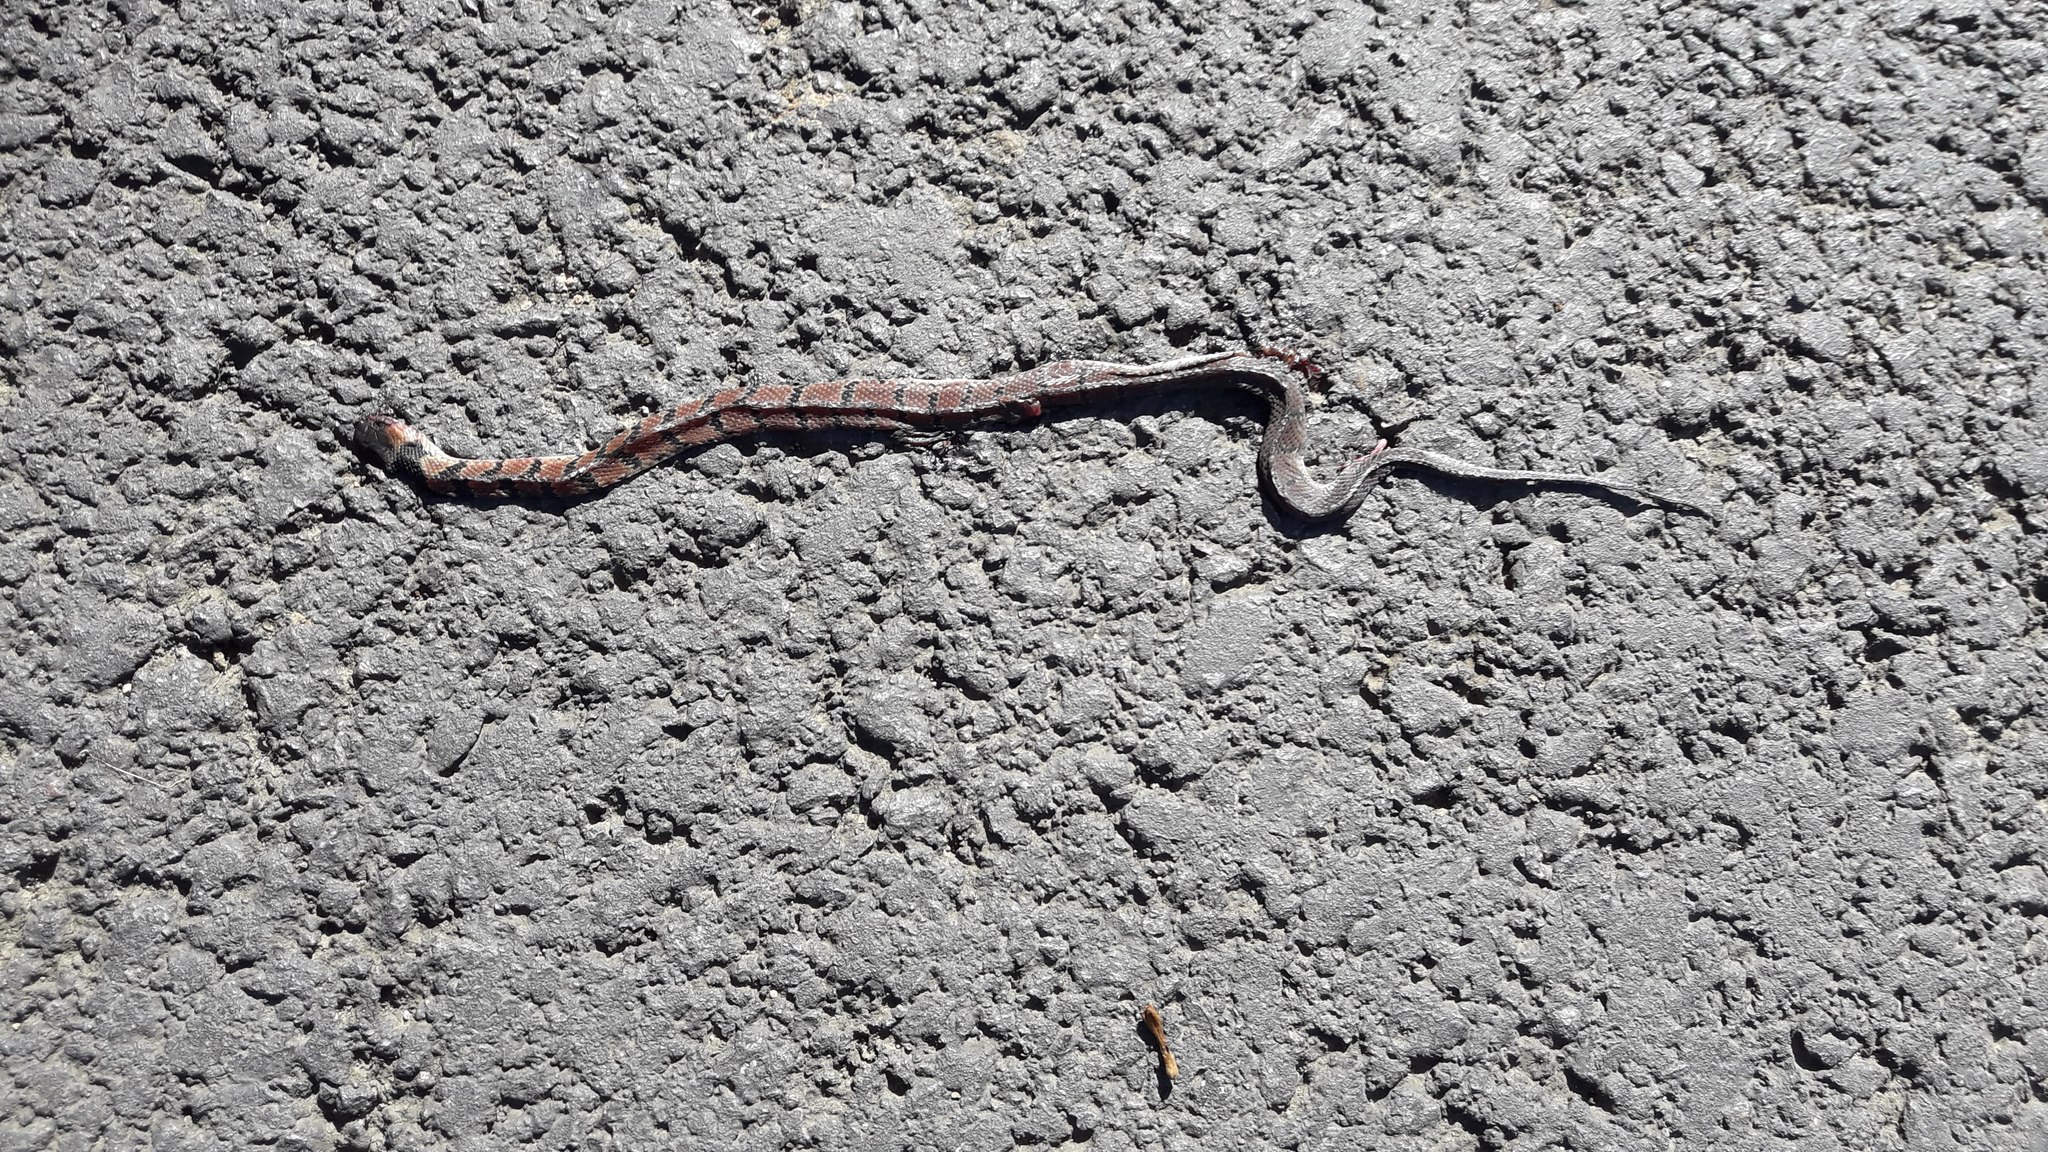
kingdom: Animalia
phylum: Chordata
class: Squamata
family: Colubridae
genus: Ninia
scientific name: Ninia maculata
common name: Spotted coffee snake
